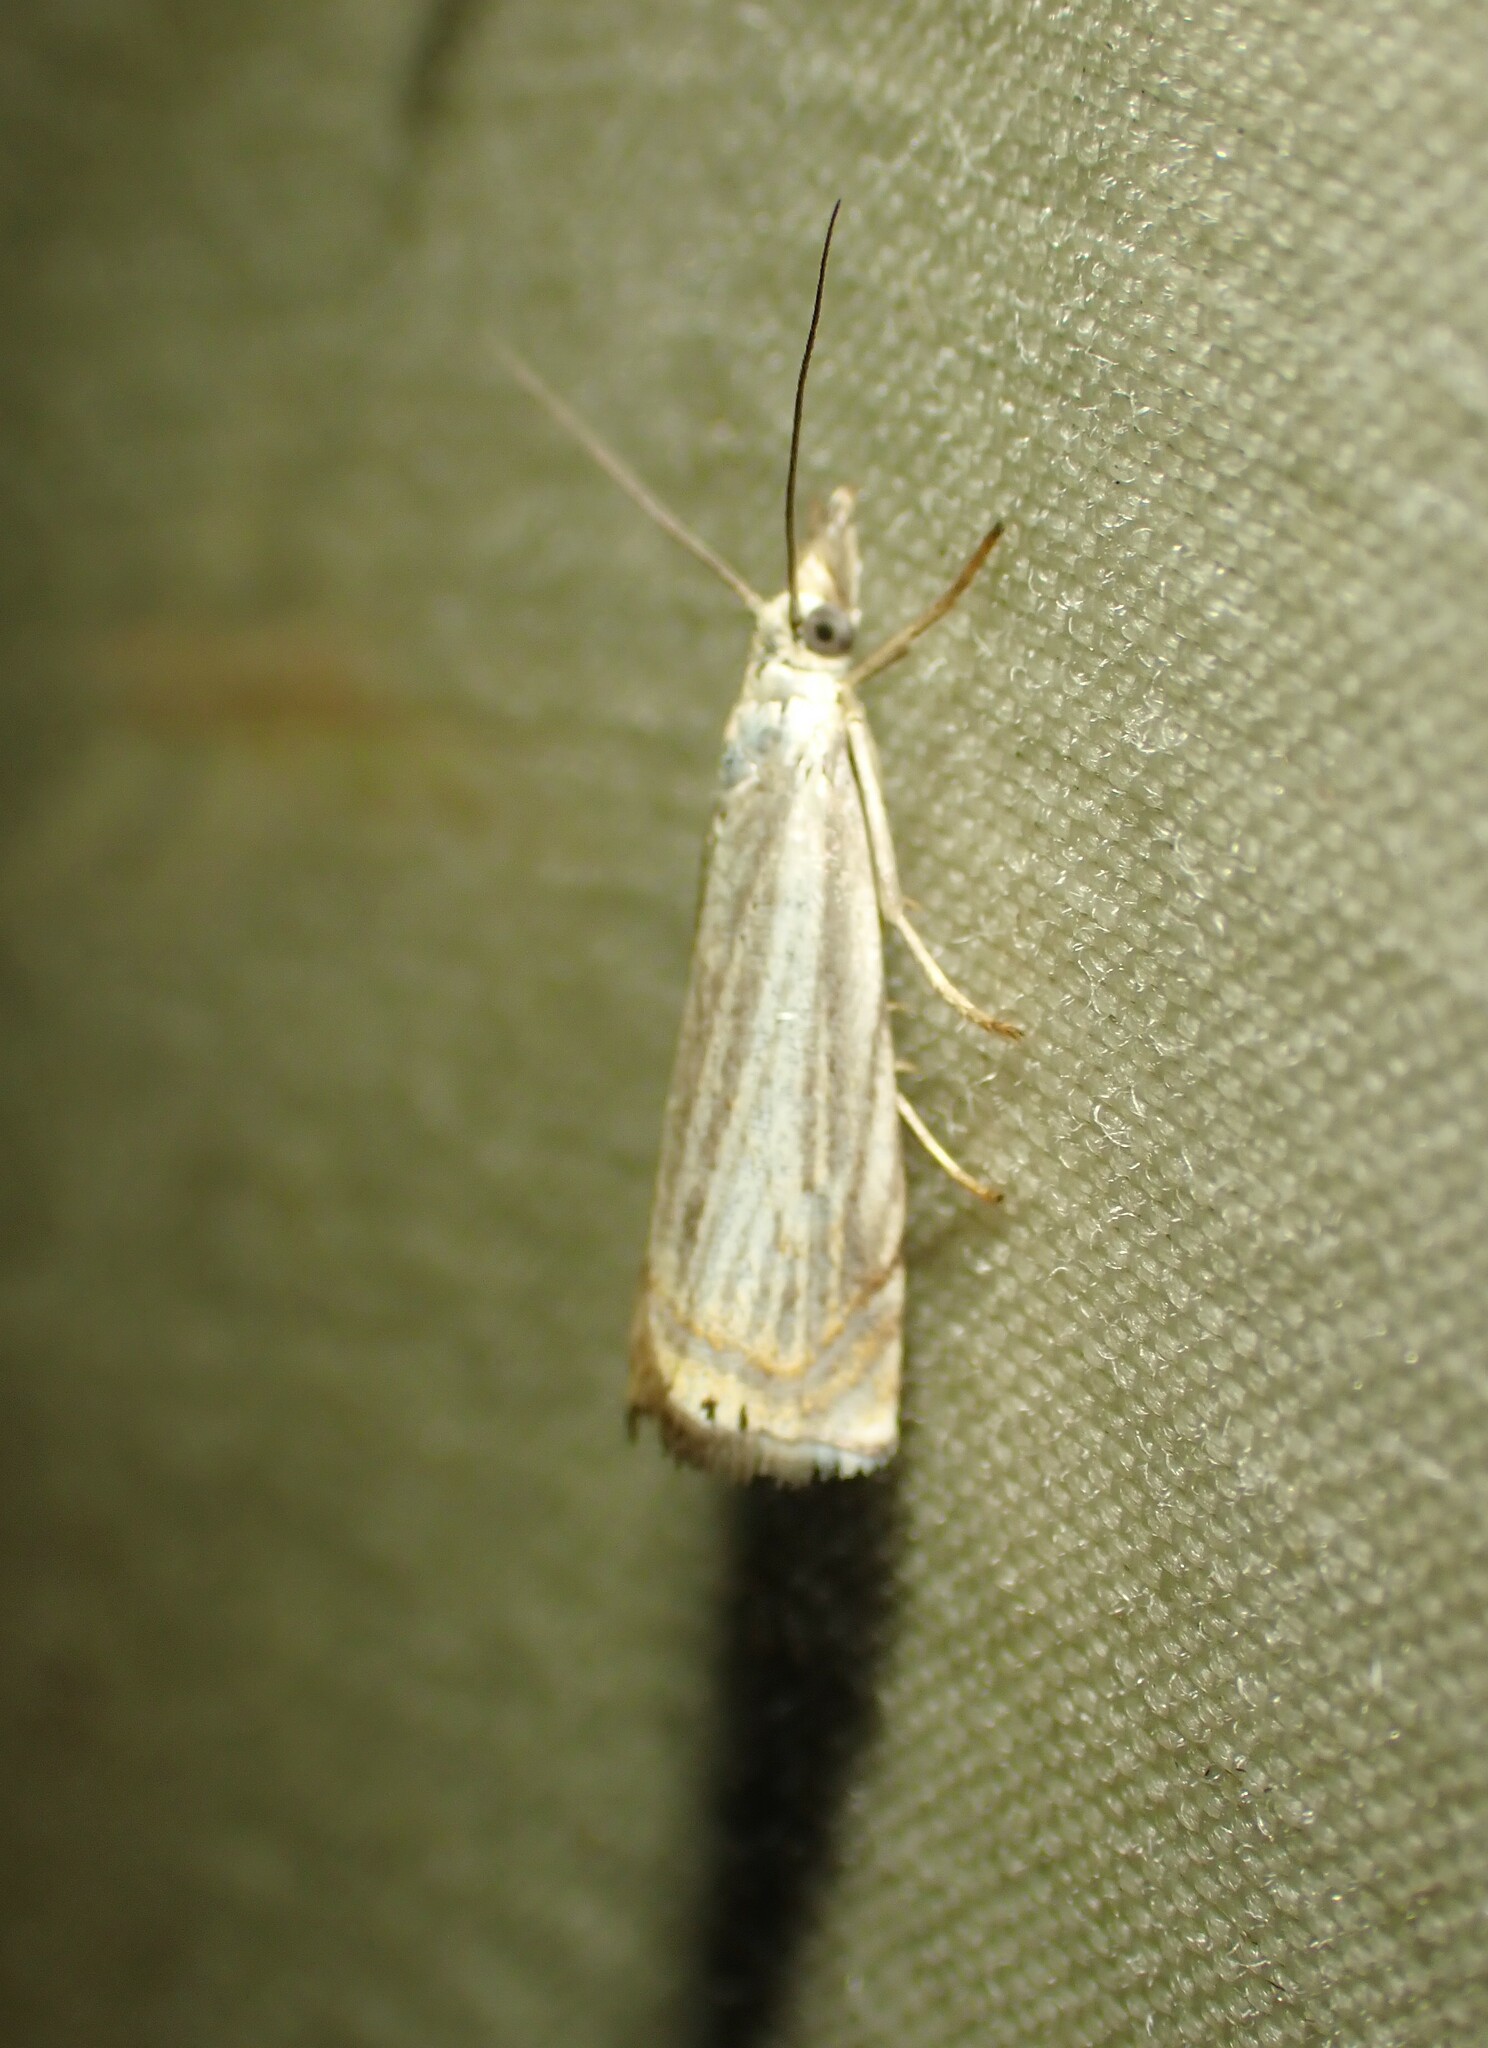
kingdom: Animalia
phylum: Arthropoda
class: Insecta
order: Lepidoptera
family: Crambidae
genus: Chrysoteuchia
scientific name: Chrysoteuchia topiarius
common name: Topiary grass-veneer
